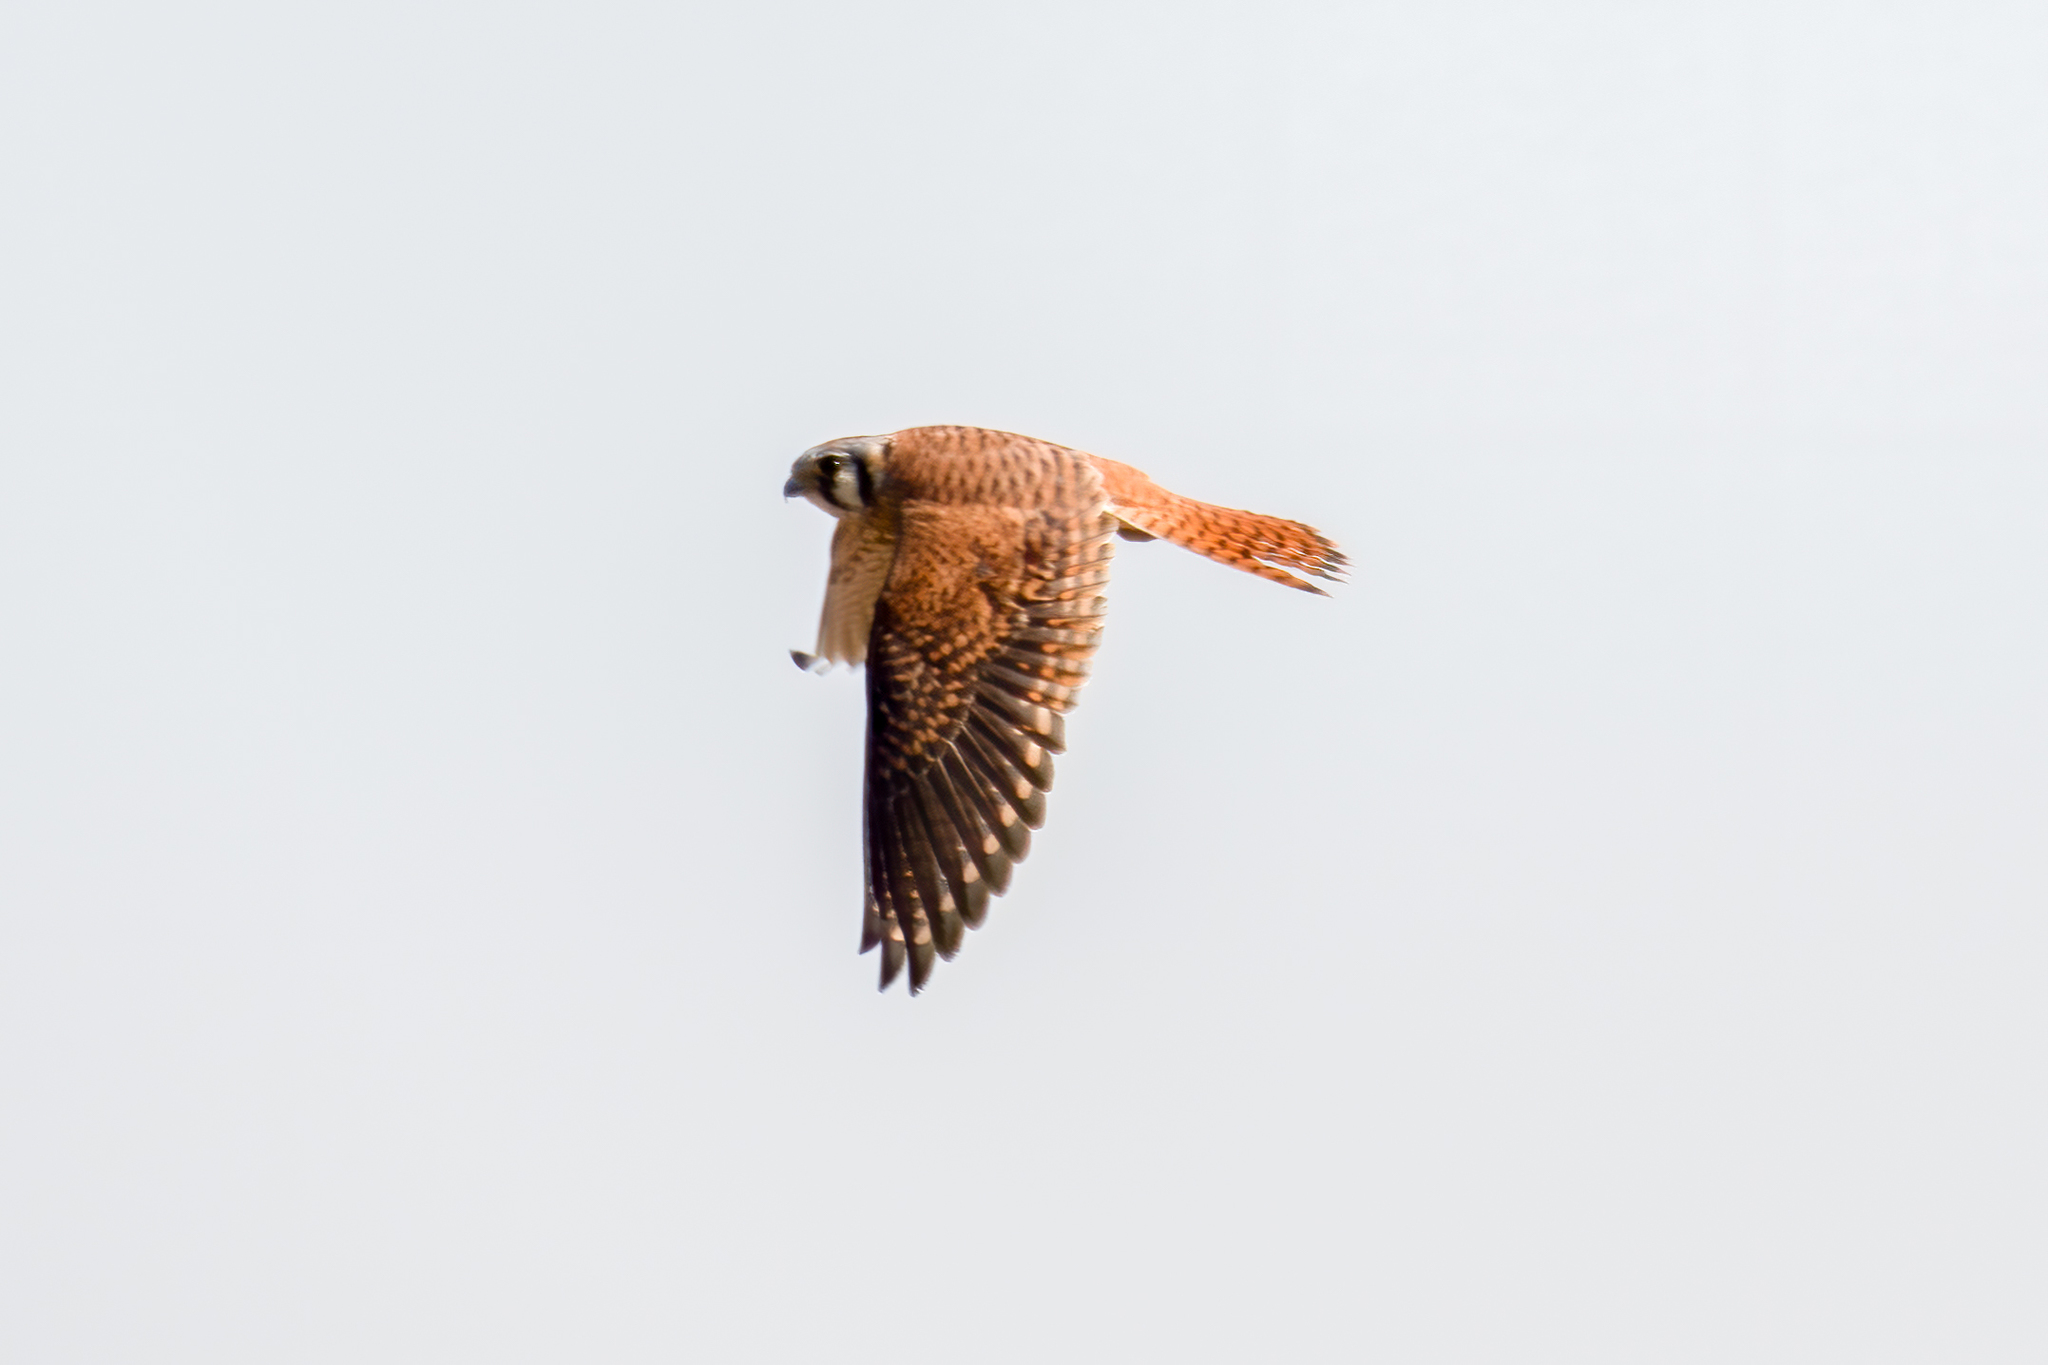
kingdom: Animalia
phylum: Chordata
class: Aves
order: Falconiformes
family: Falconidae
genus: Falco
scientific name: Falco sparverius
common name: American kestrel
